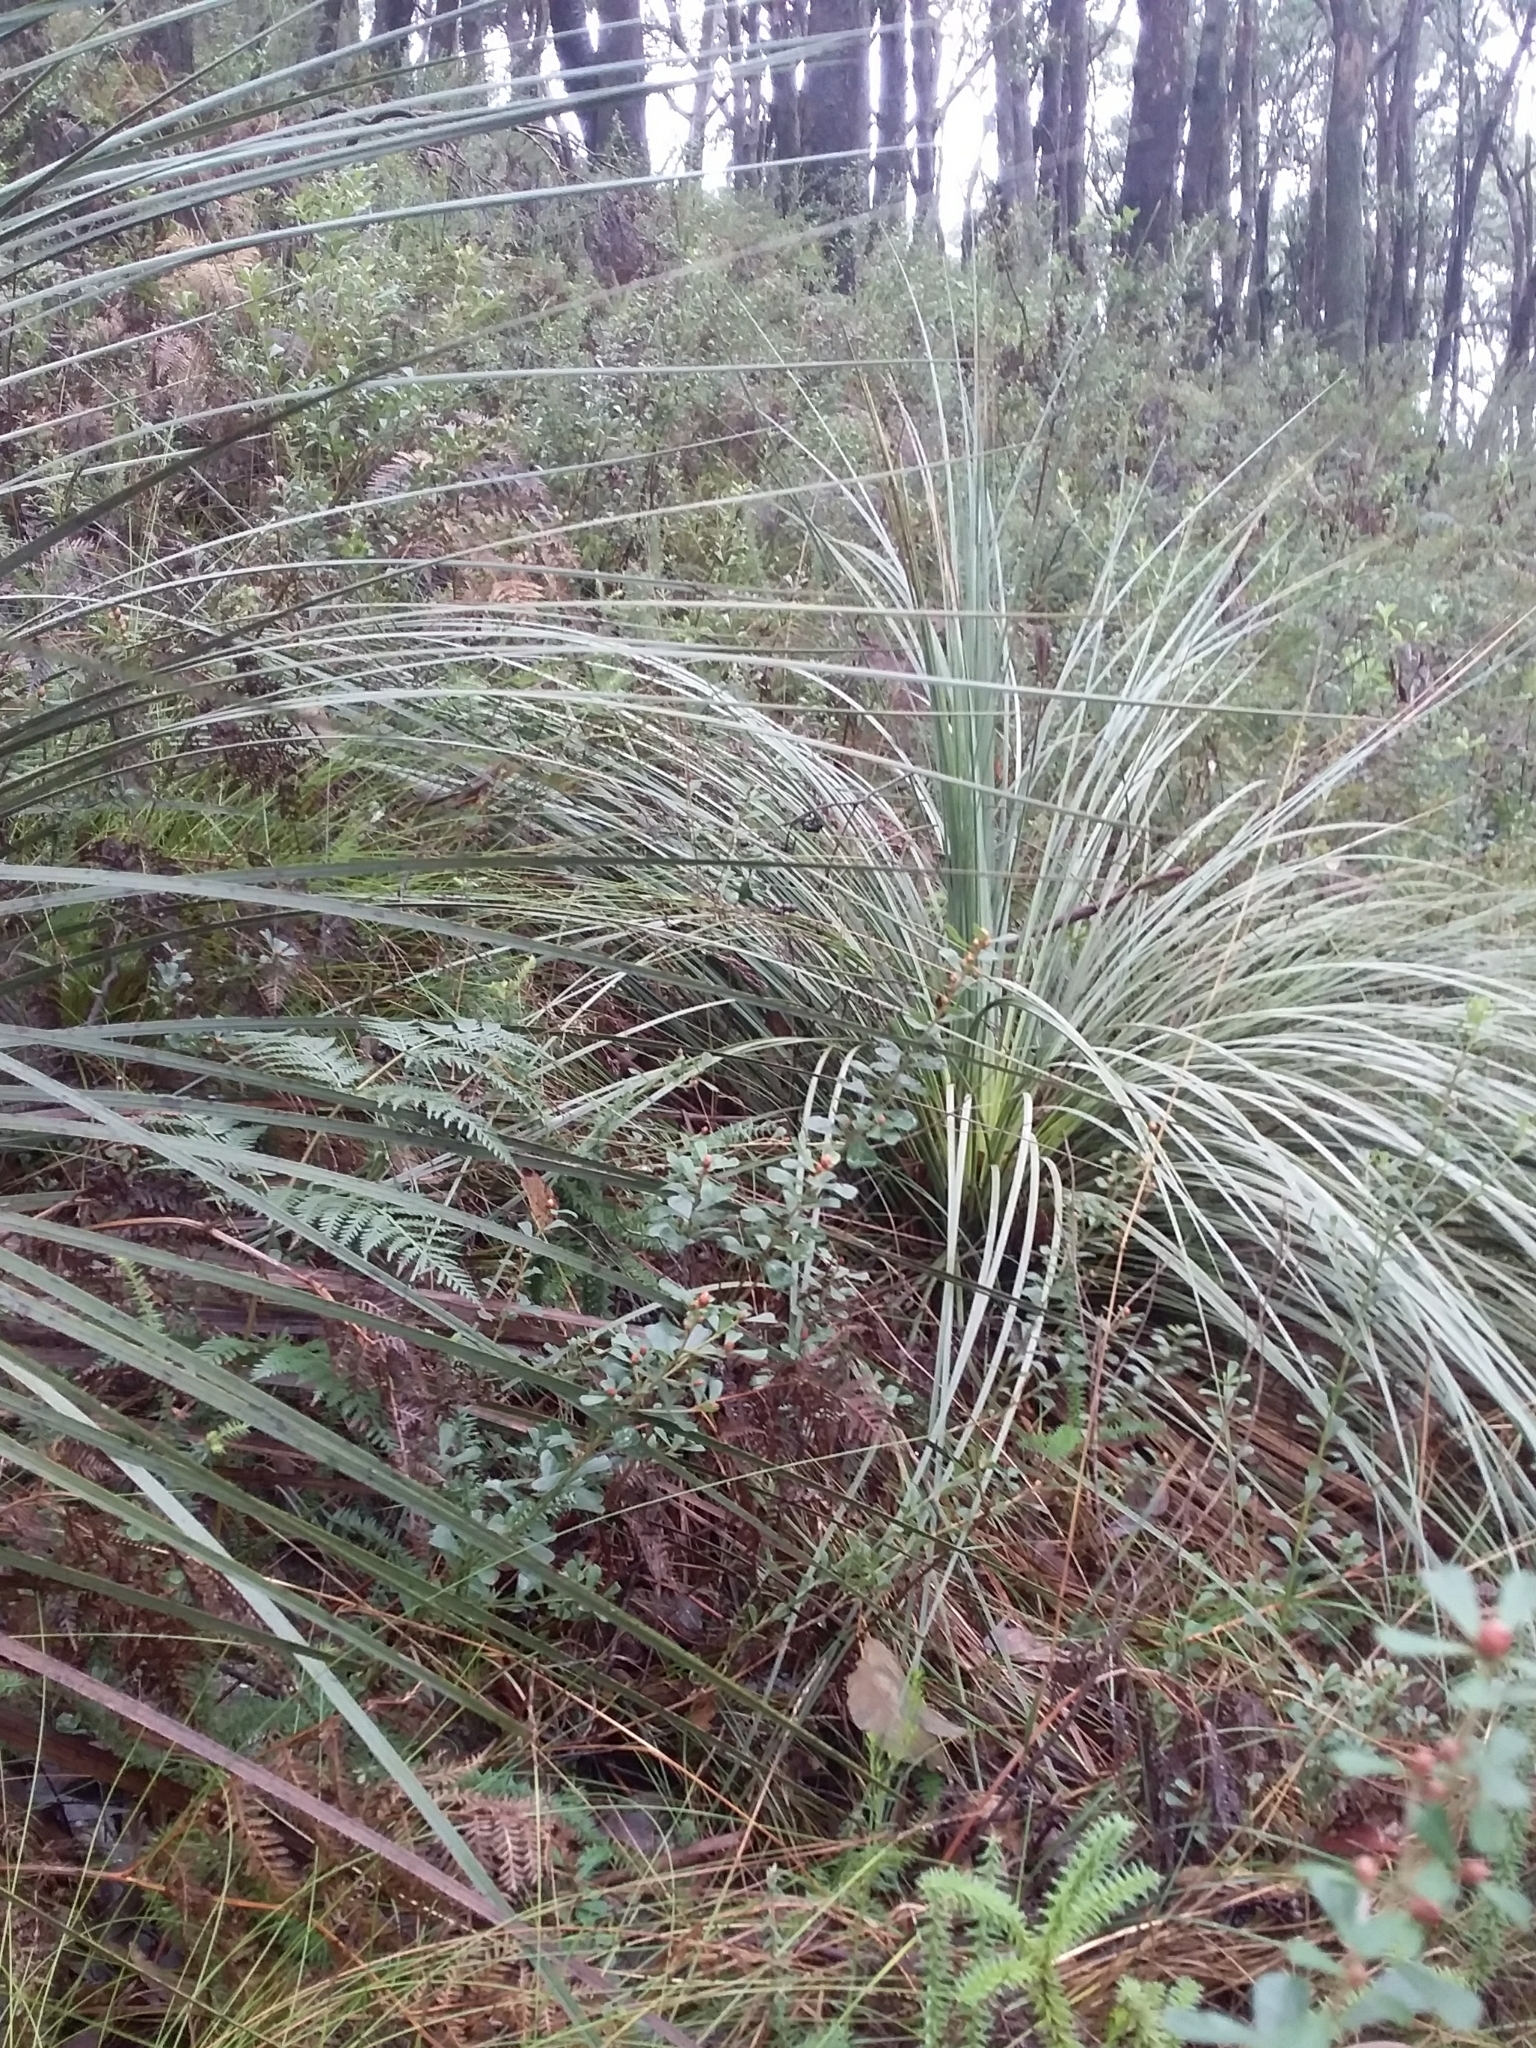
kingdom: Plantae
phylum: Tracheophyta
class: Liliopsida
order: Asparagales
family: Asphodelaceae
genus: Xanthorrhoea
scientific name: Xanthorrhoea semiplana
